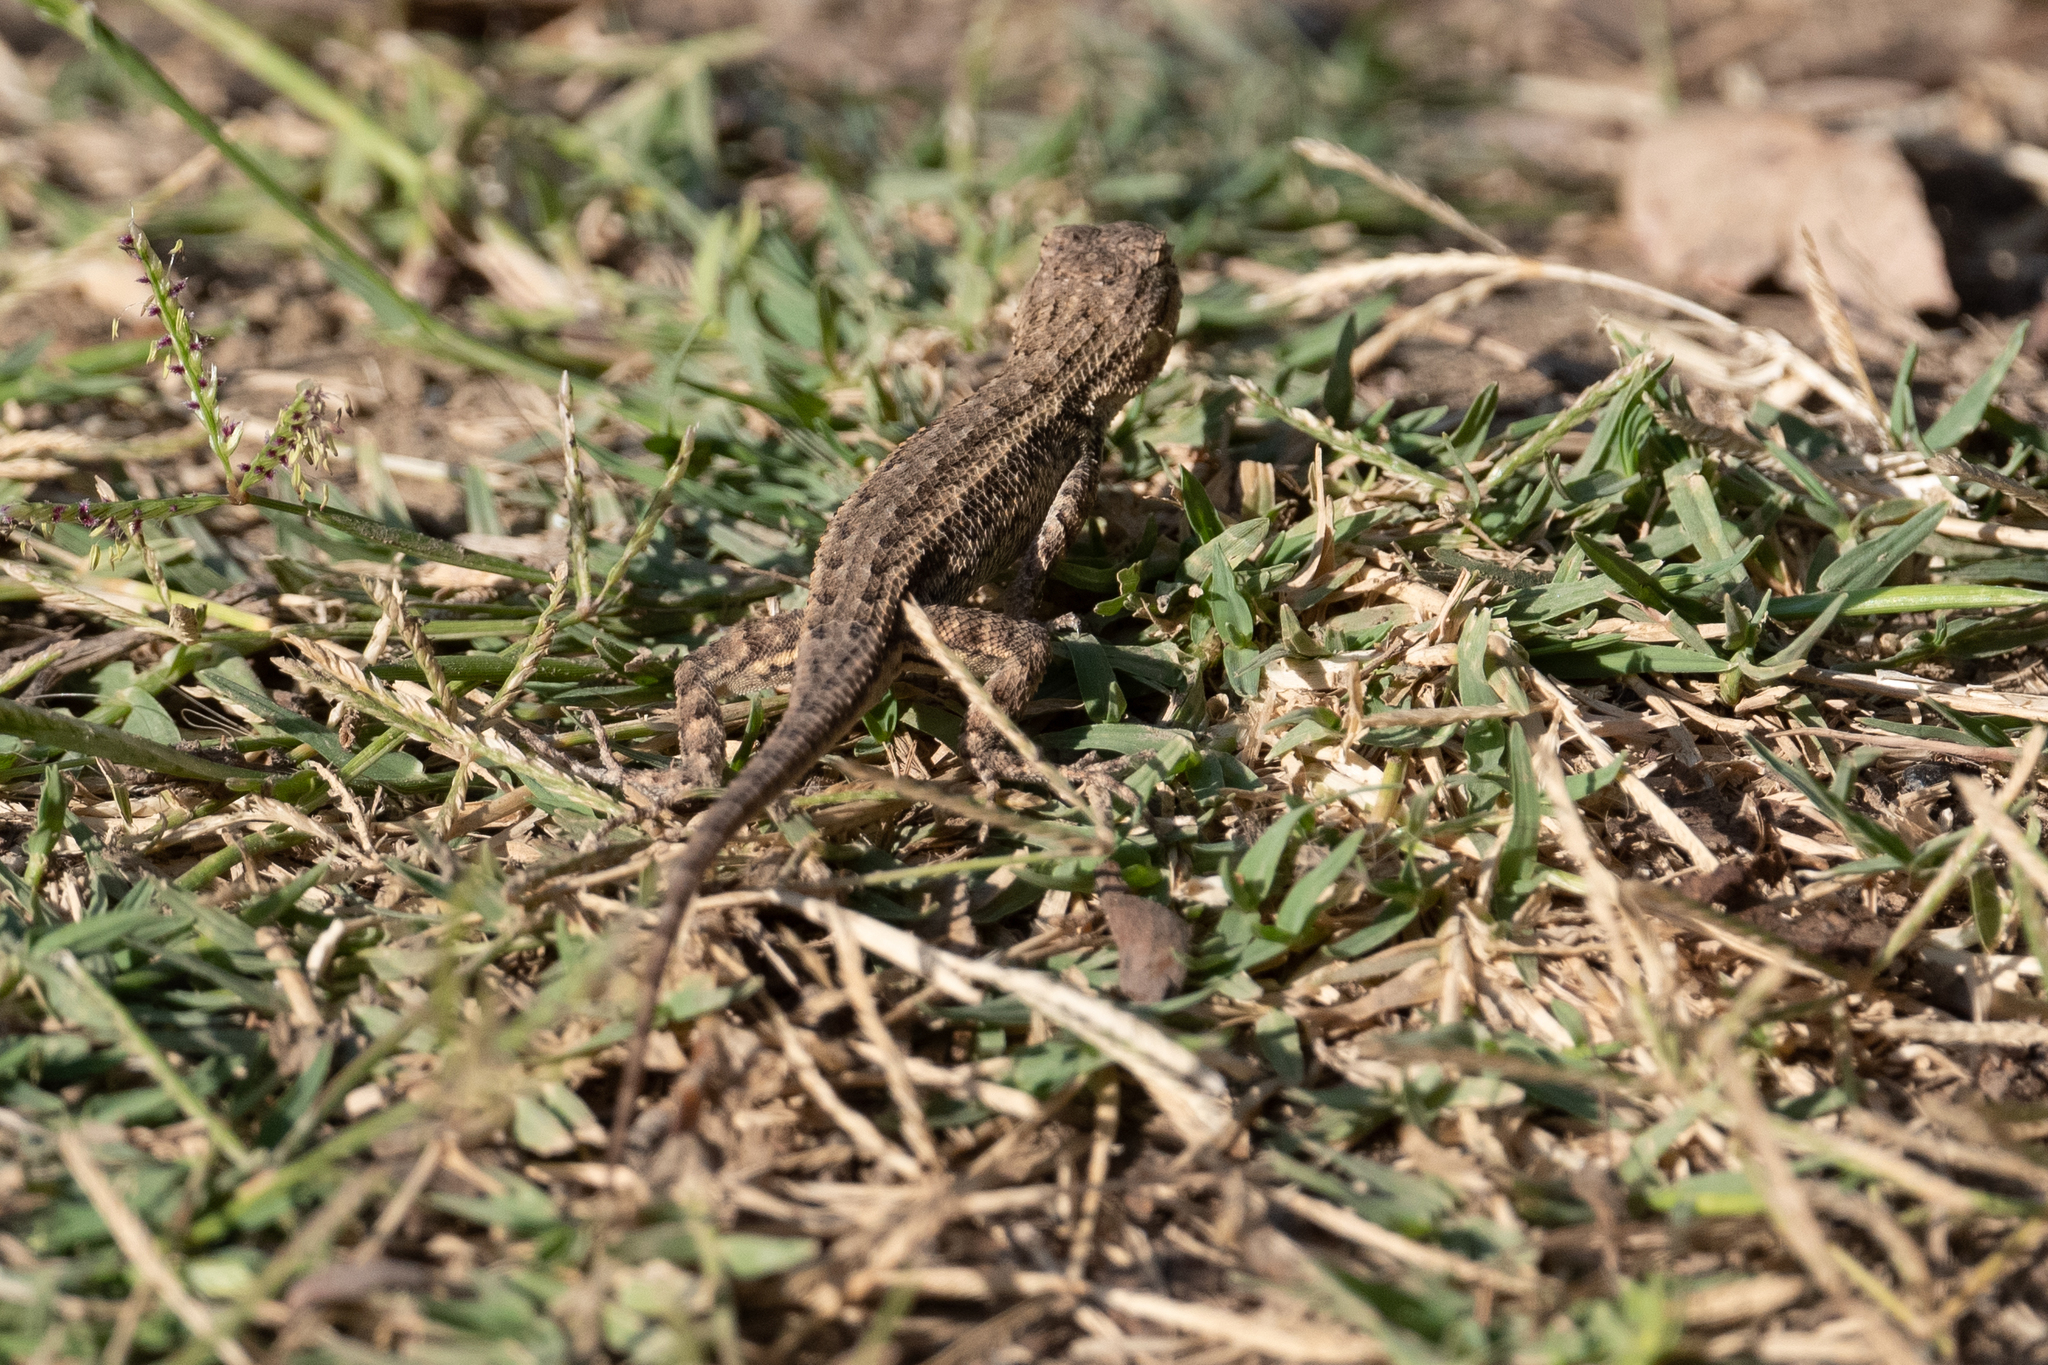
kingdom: Animalia
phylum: Chordata
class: Squamata
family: Phrynosomatidae
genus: Sceloporus
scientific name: Sceloporus occidentalis
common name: Western fence lizard
